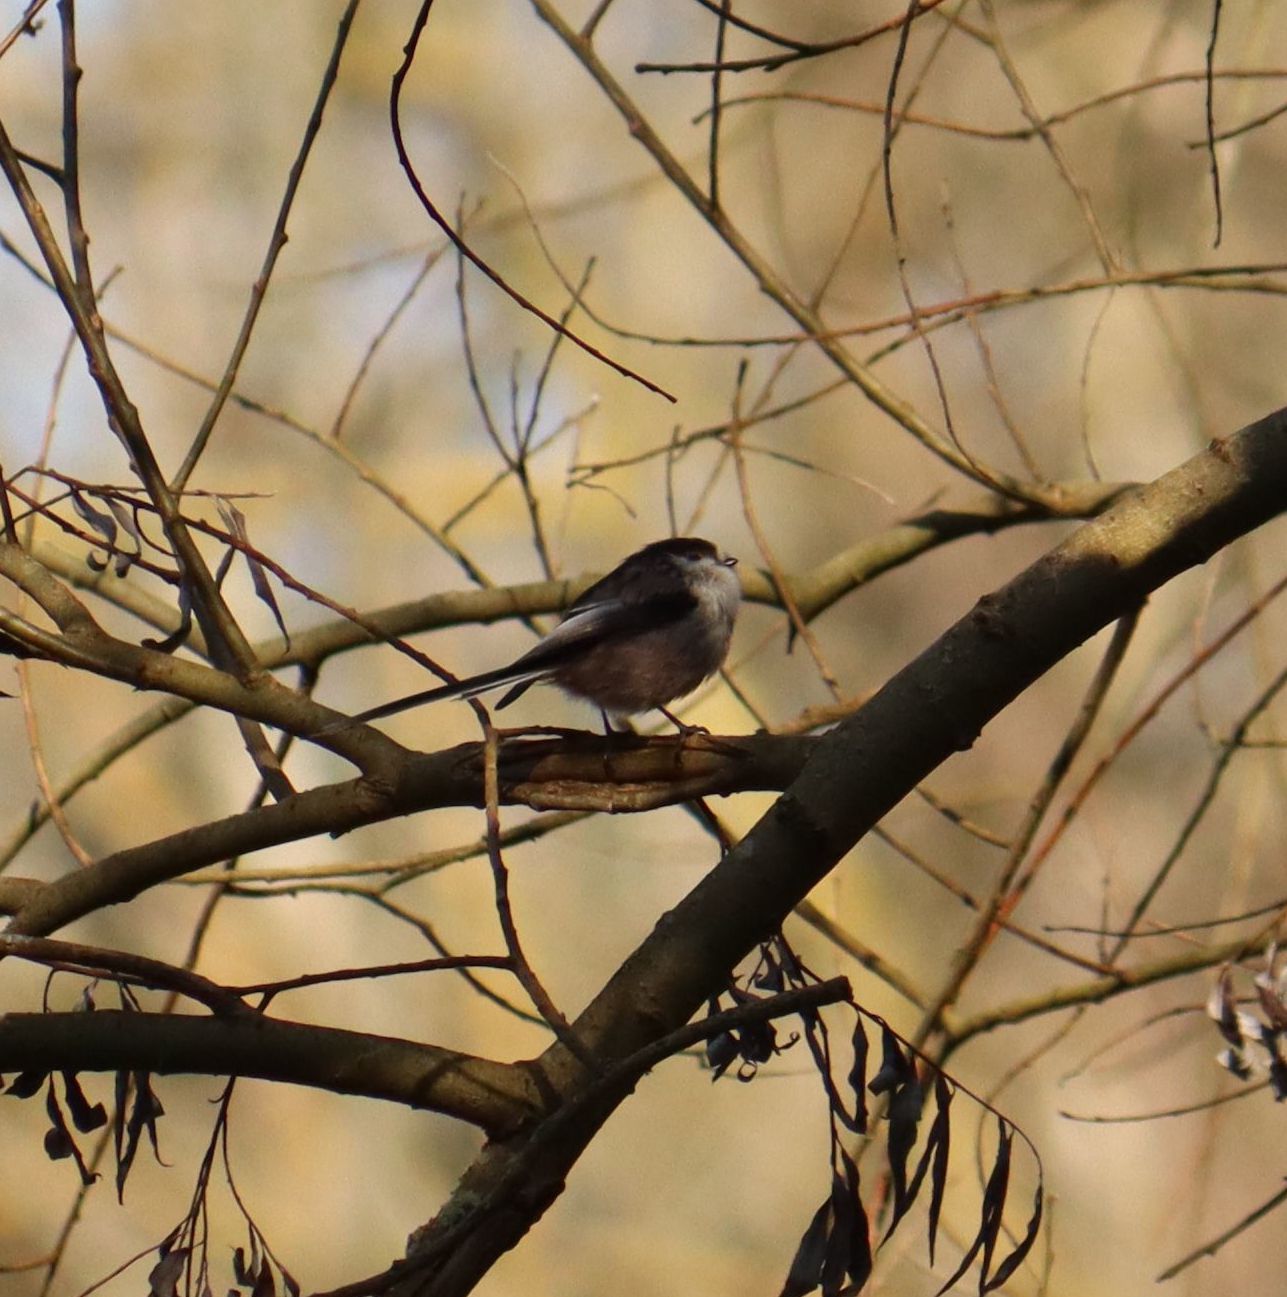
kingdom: Animalia
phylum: Chordata
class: Aves
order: Passeriformes
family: Aegithalidae
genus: Aegithalos
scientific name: Aegithalos caudatus
